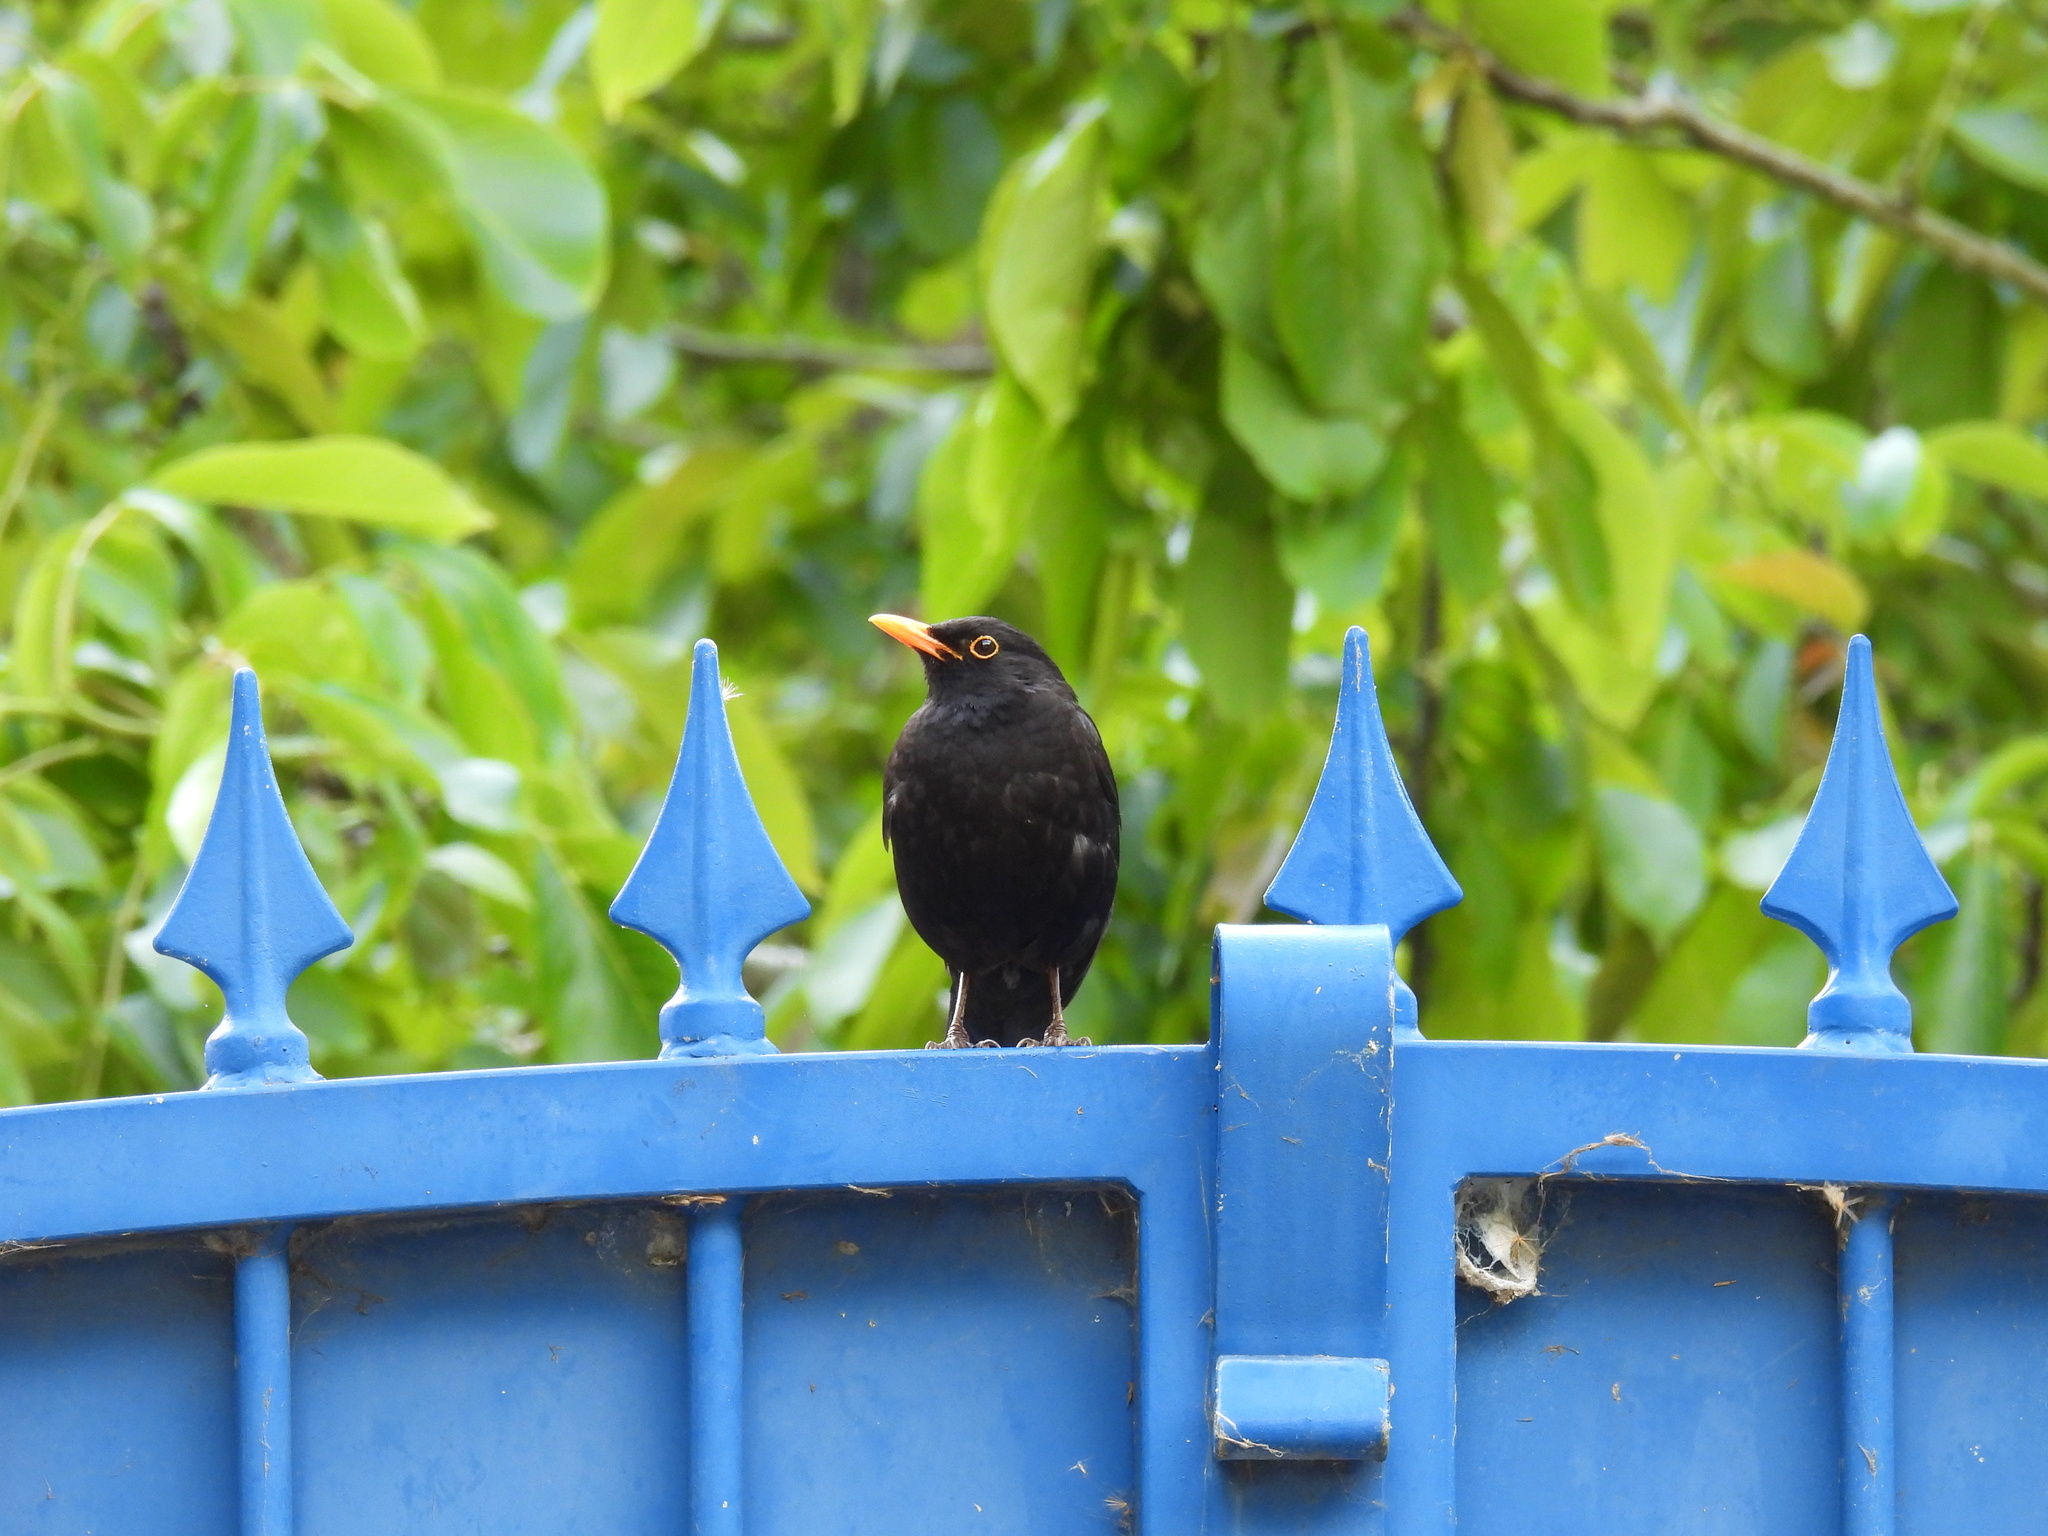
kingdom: Animalia
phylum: Chordata
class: Aves
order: Passeriformes
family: Turdidae
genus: Turdus
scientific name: Turdus merula
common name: Common blackbird
